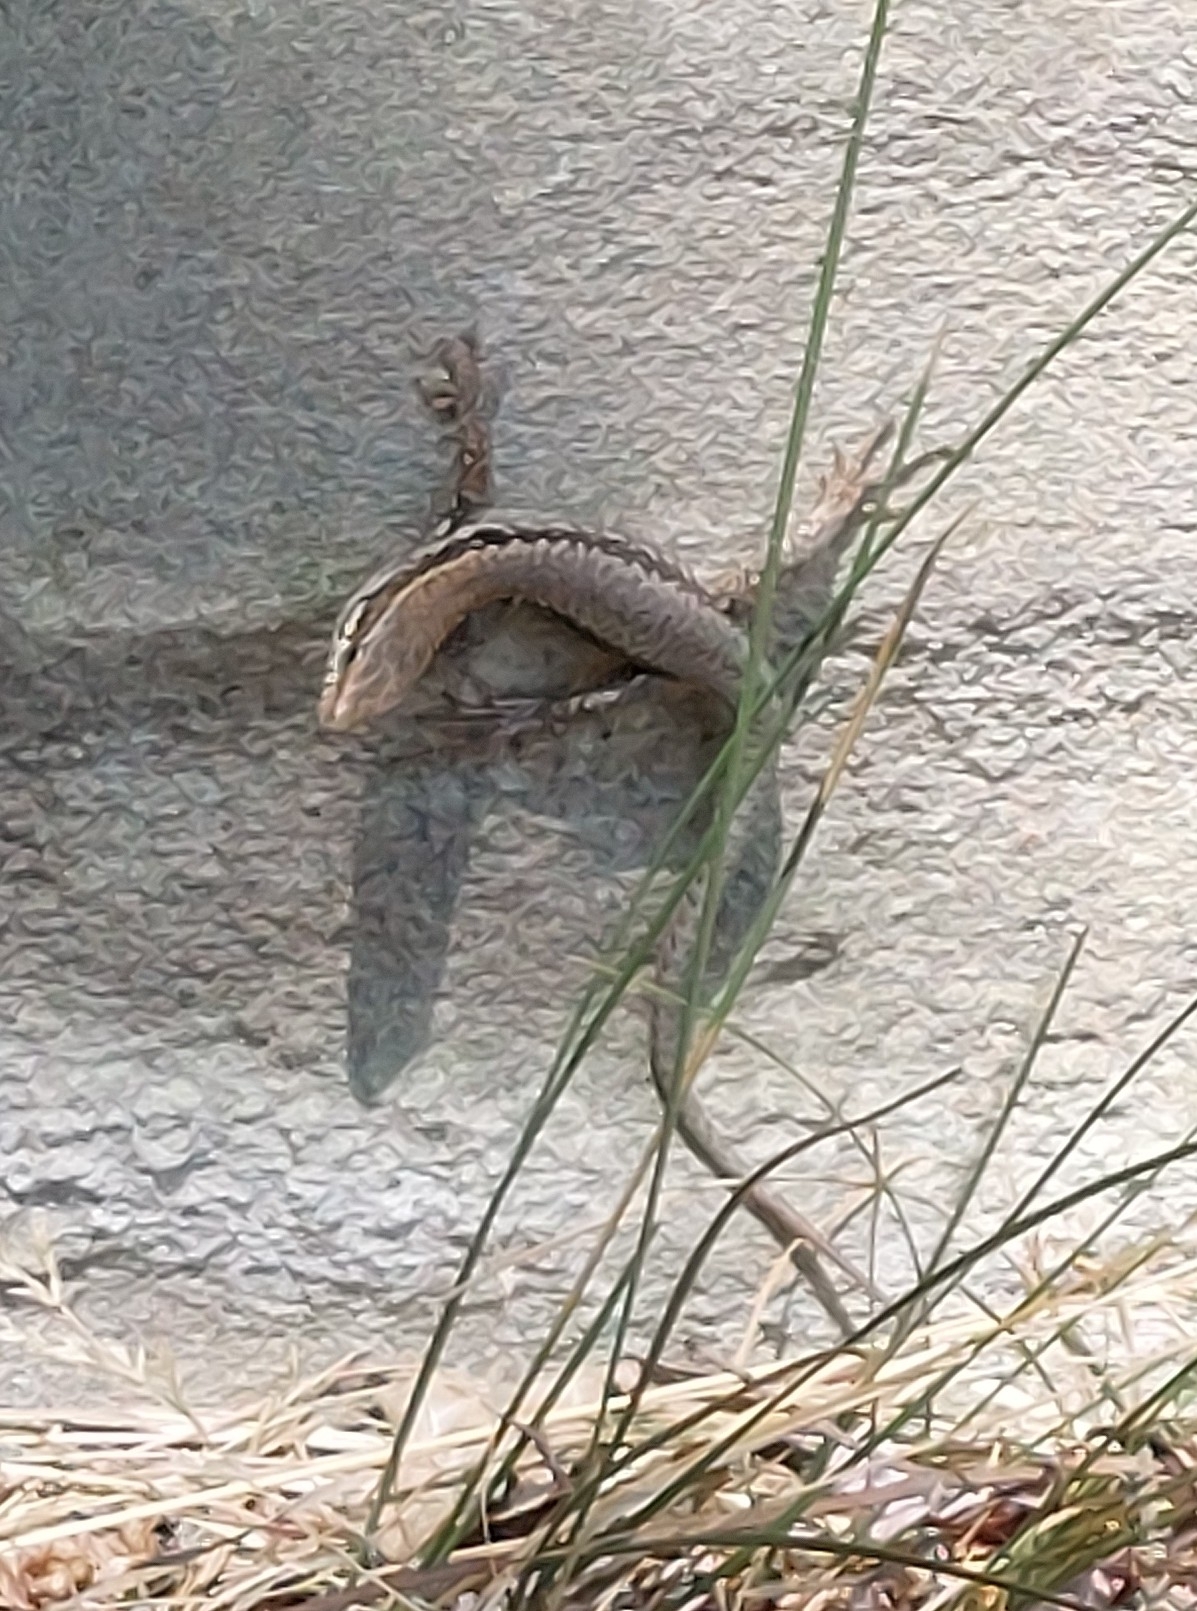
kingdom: Animalia
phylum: Chordata
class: Squamata
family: Lacertidae
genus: Podarcis
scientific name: Podarcis muralis
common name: Common wall lizard
